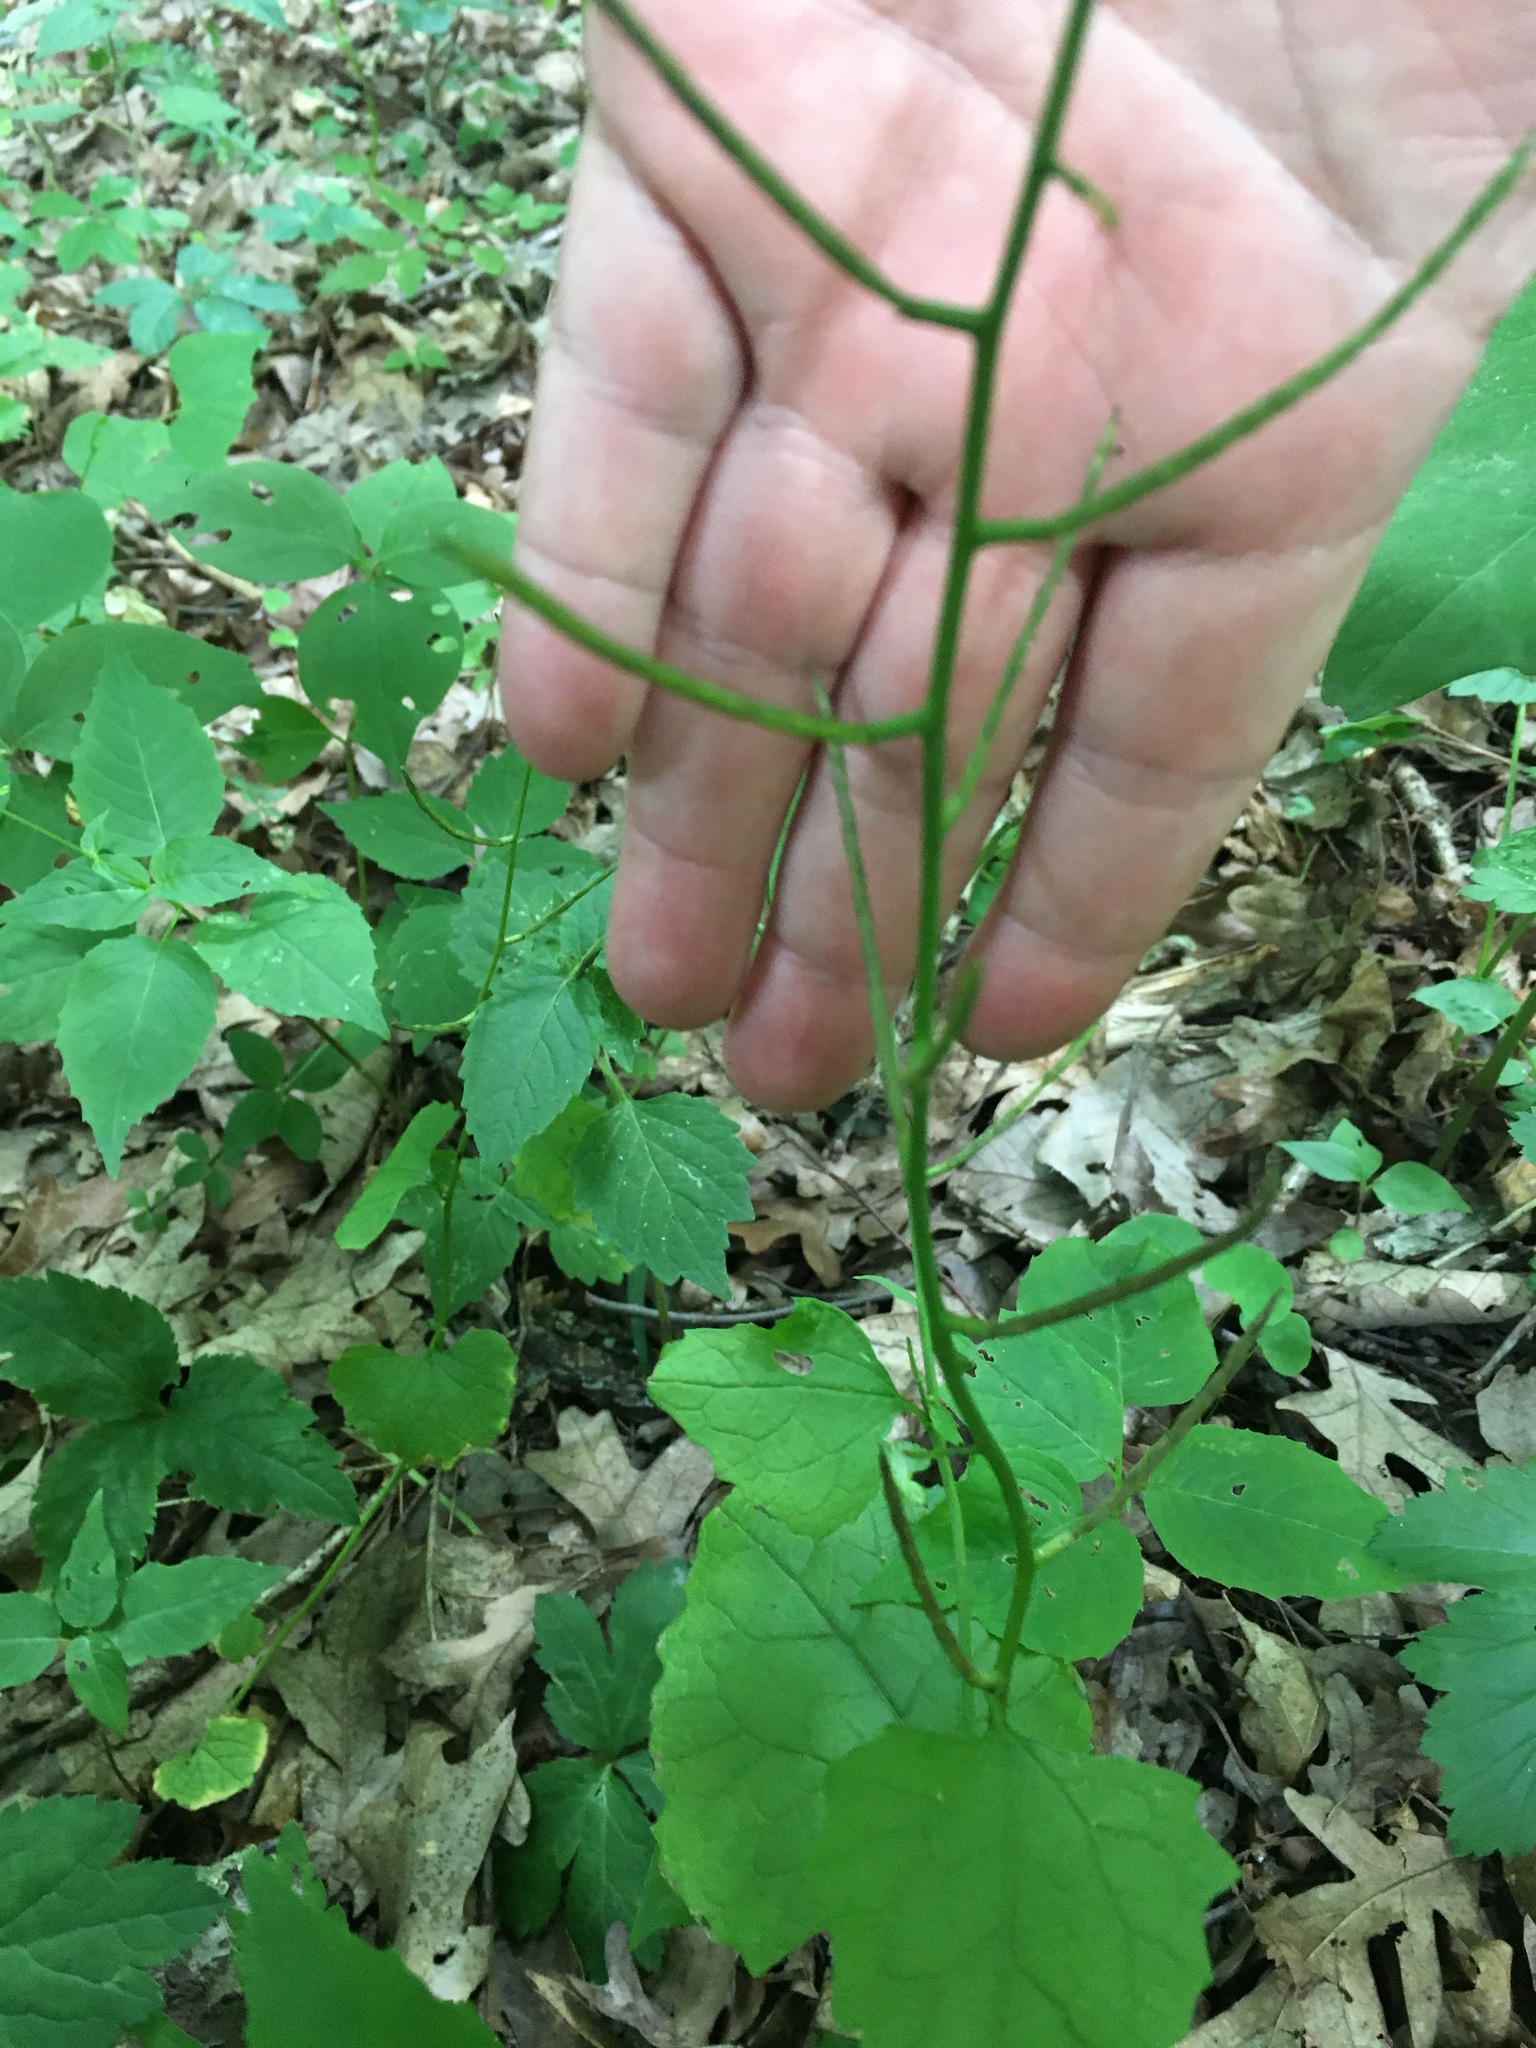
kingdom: Plantae
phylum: Tracheophyta
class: Magnoliopsida
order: Brassicales
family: Brassicaceae
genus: Alliaria
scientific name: Alliaria petiolata
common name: Garlic mustard
